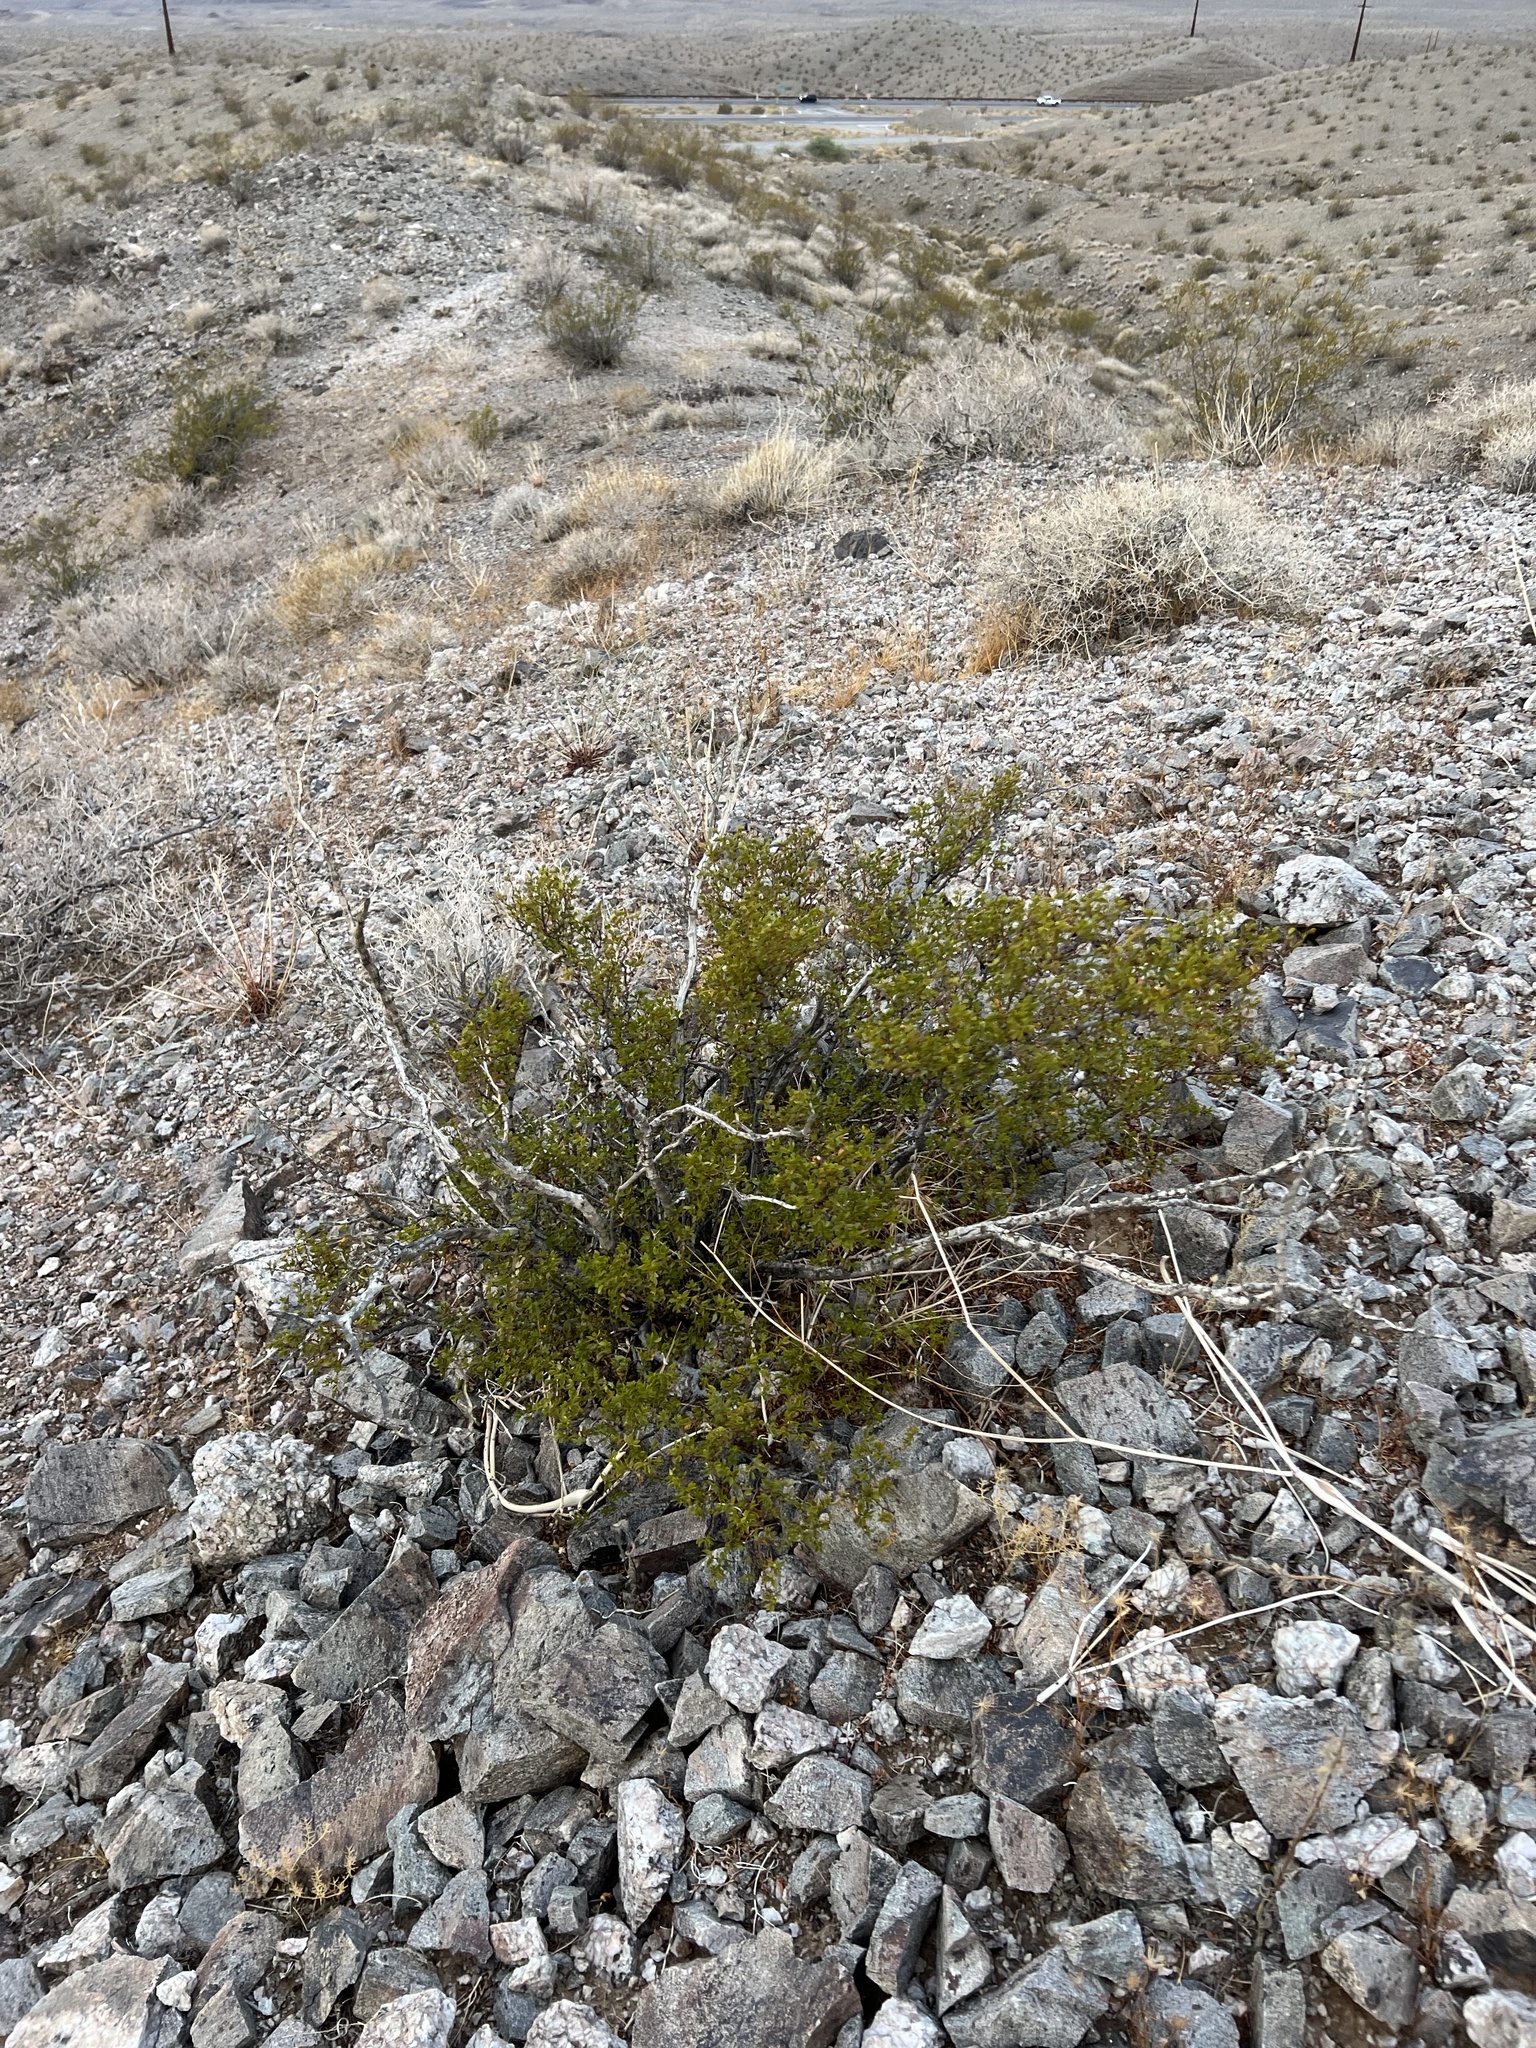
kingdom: Plantae
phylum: Tracheophyta
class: Magnoliopsida
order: Zygophyllales
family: Zygophyllaceae
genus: Larrea
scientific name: Larrea tridentata
